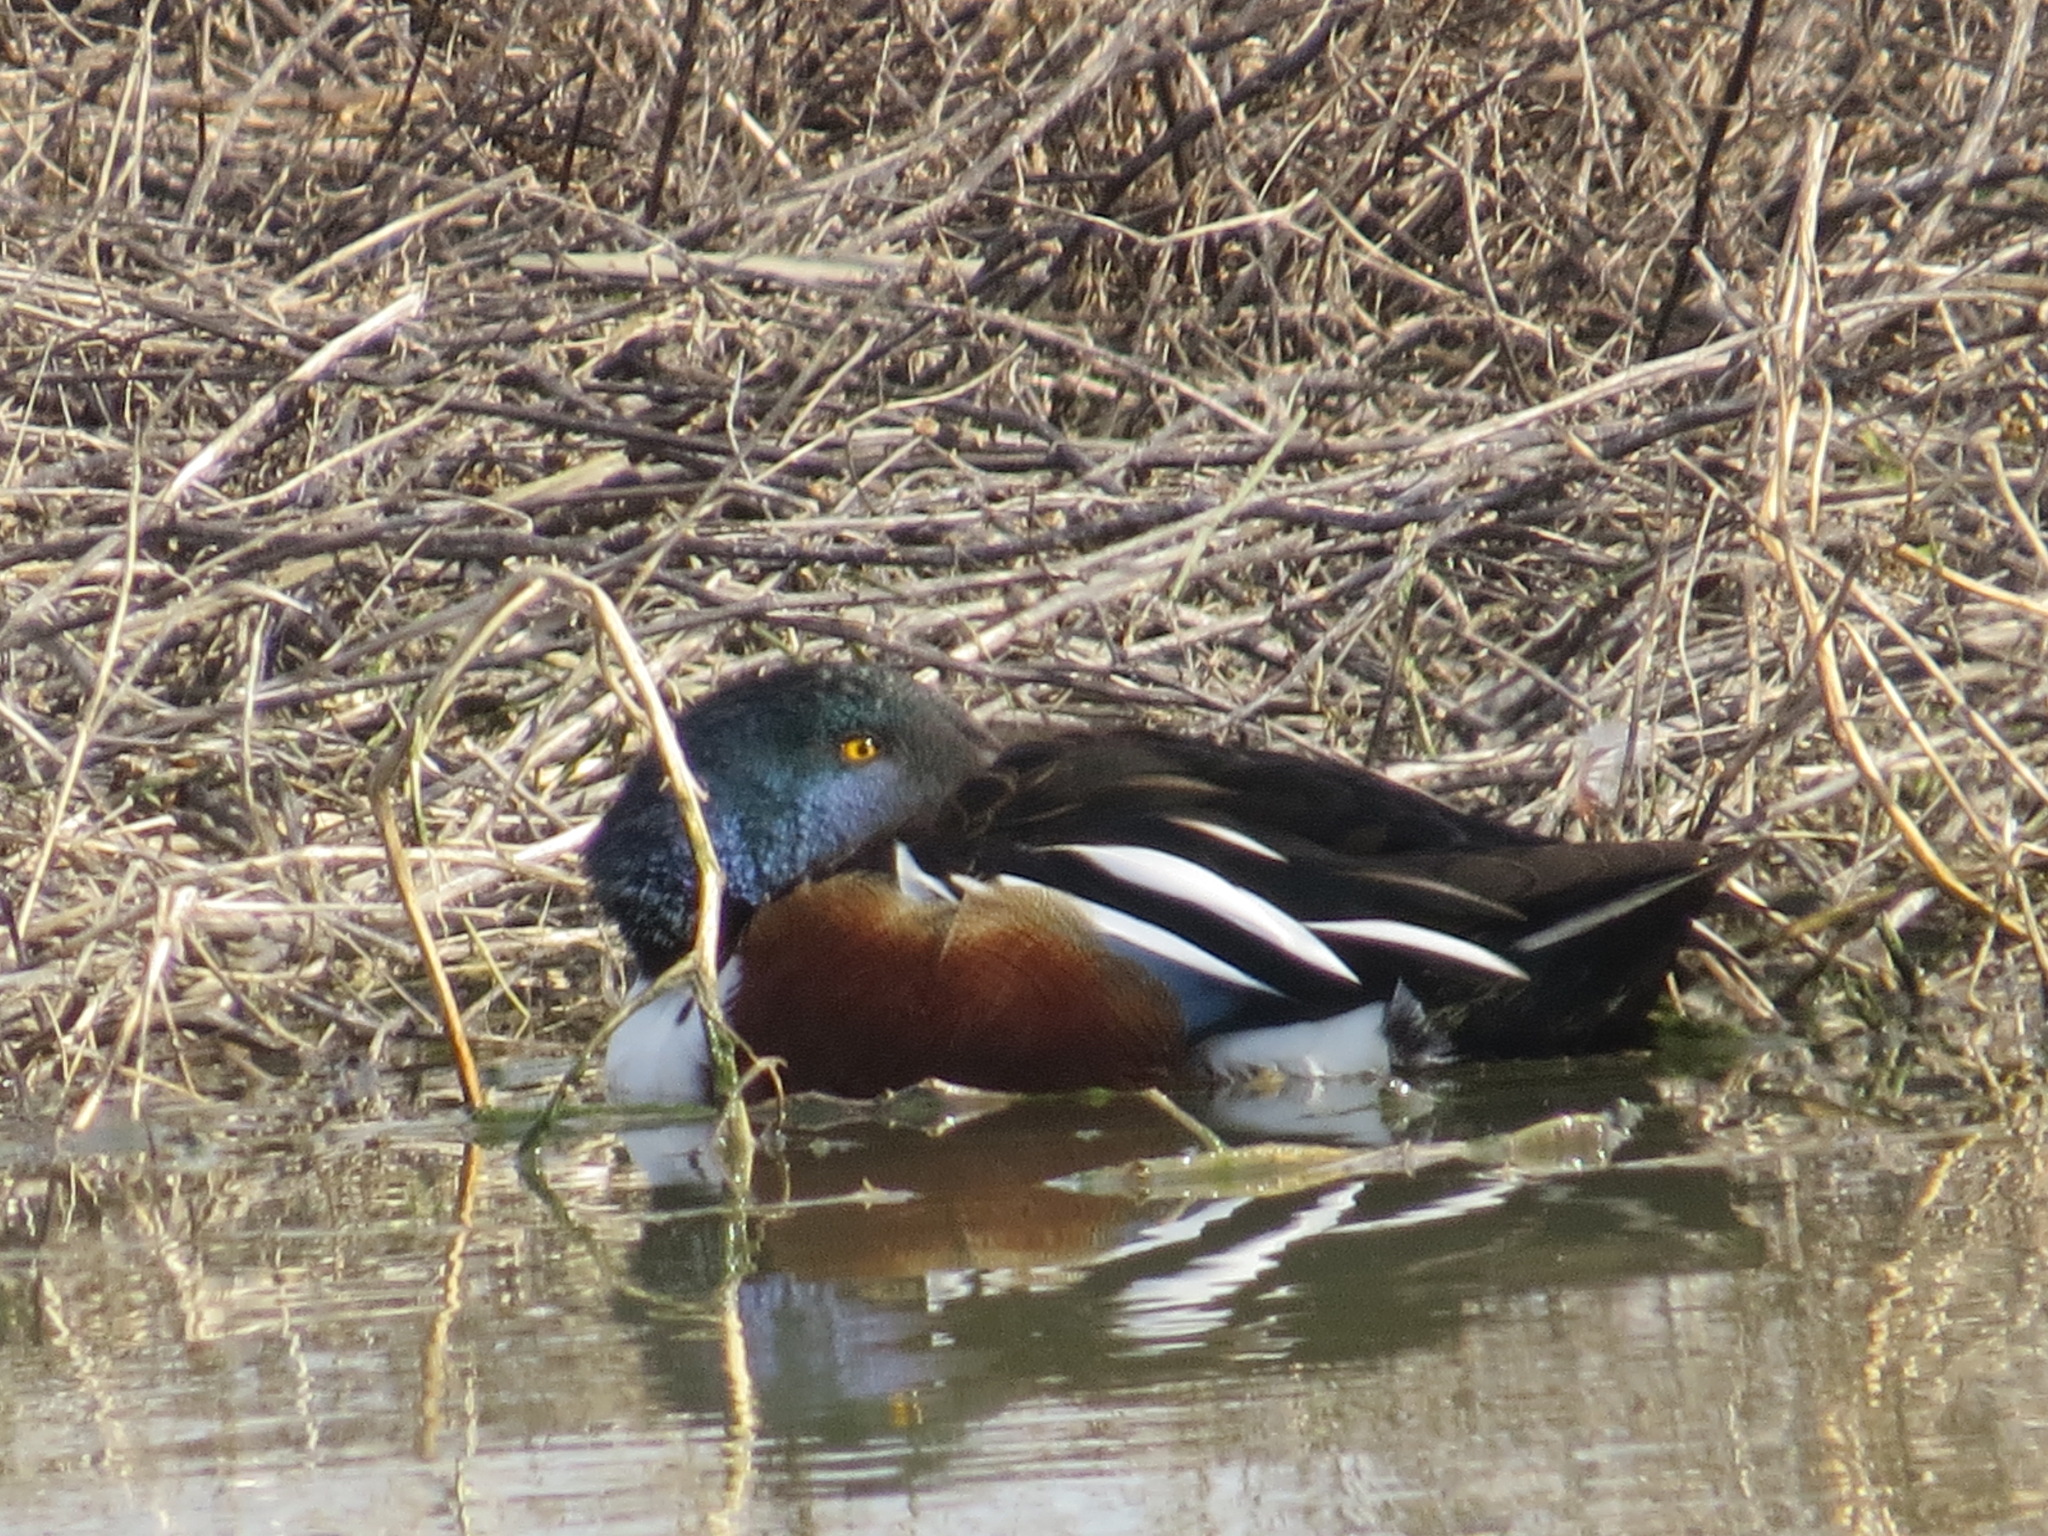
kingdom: Animalia
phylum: Chordata
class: Aves
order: Anseriformes
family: Anatidae
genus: Spatula
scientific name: Spatula clypeata
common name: Northern shoveler
